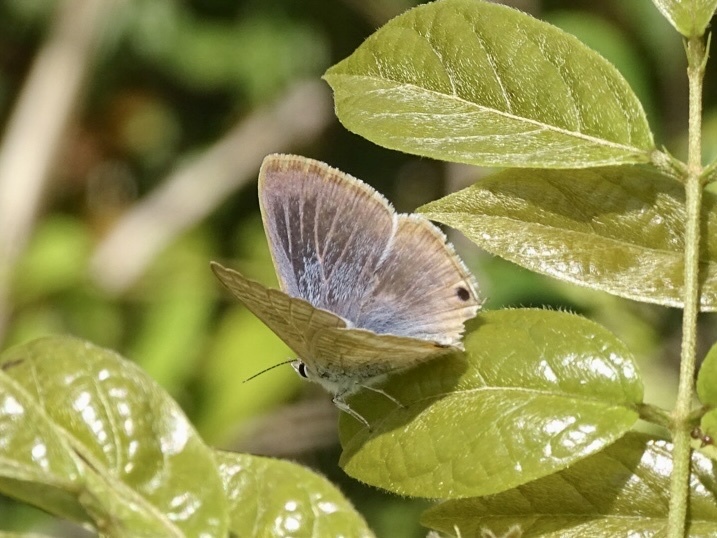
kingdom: Animalia
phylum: Arthropoda
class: Insecta
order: Lepidoptera
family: Lycaenidae
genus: Lampides
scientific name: Lampides boeticus
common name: Long-tailed blue
